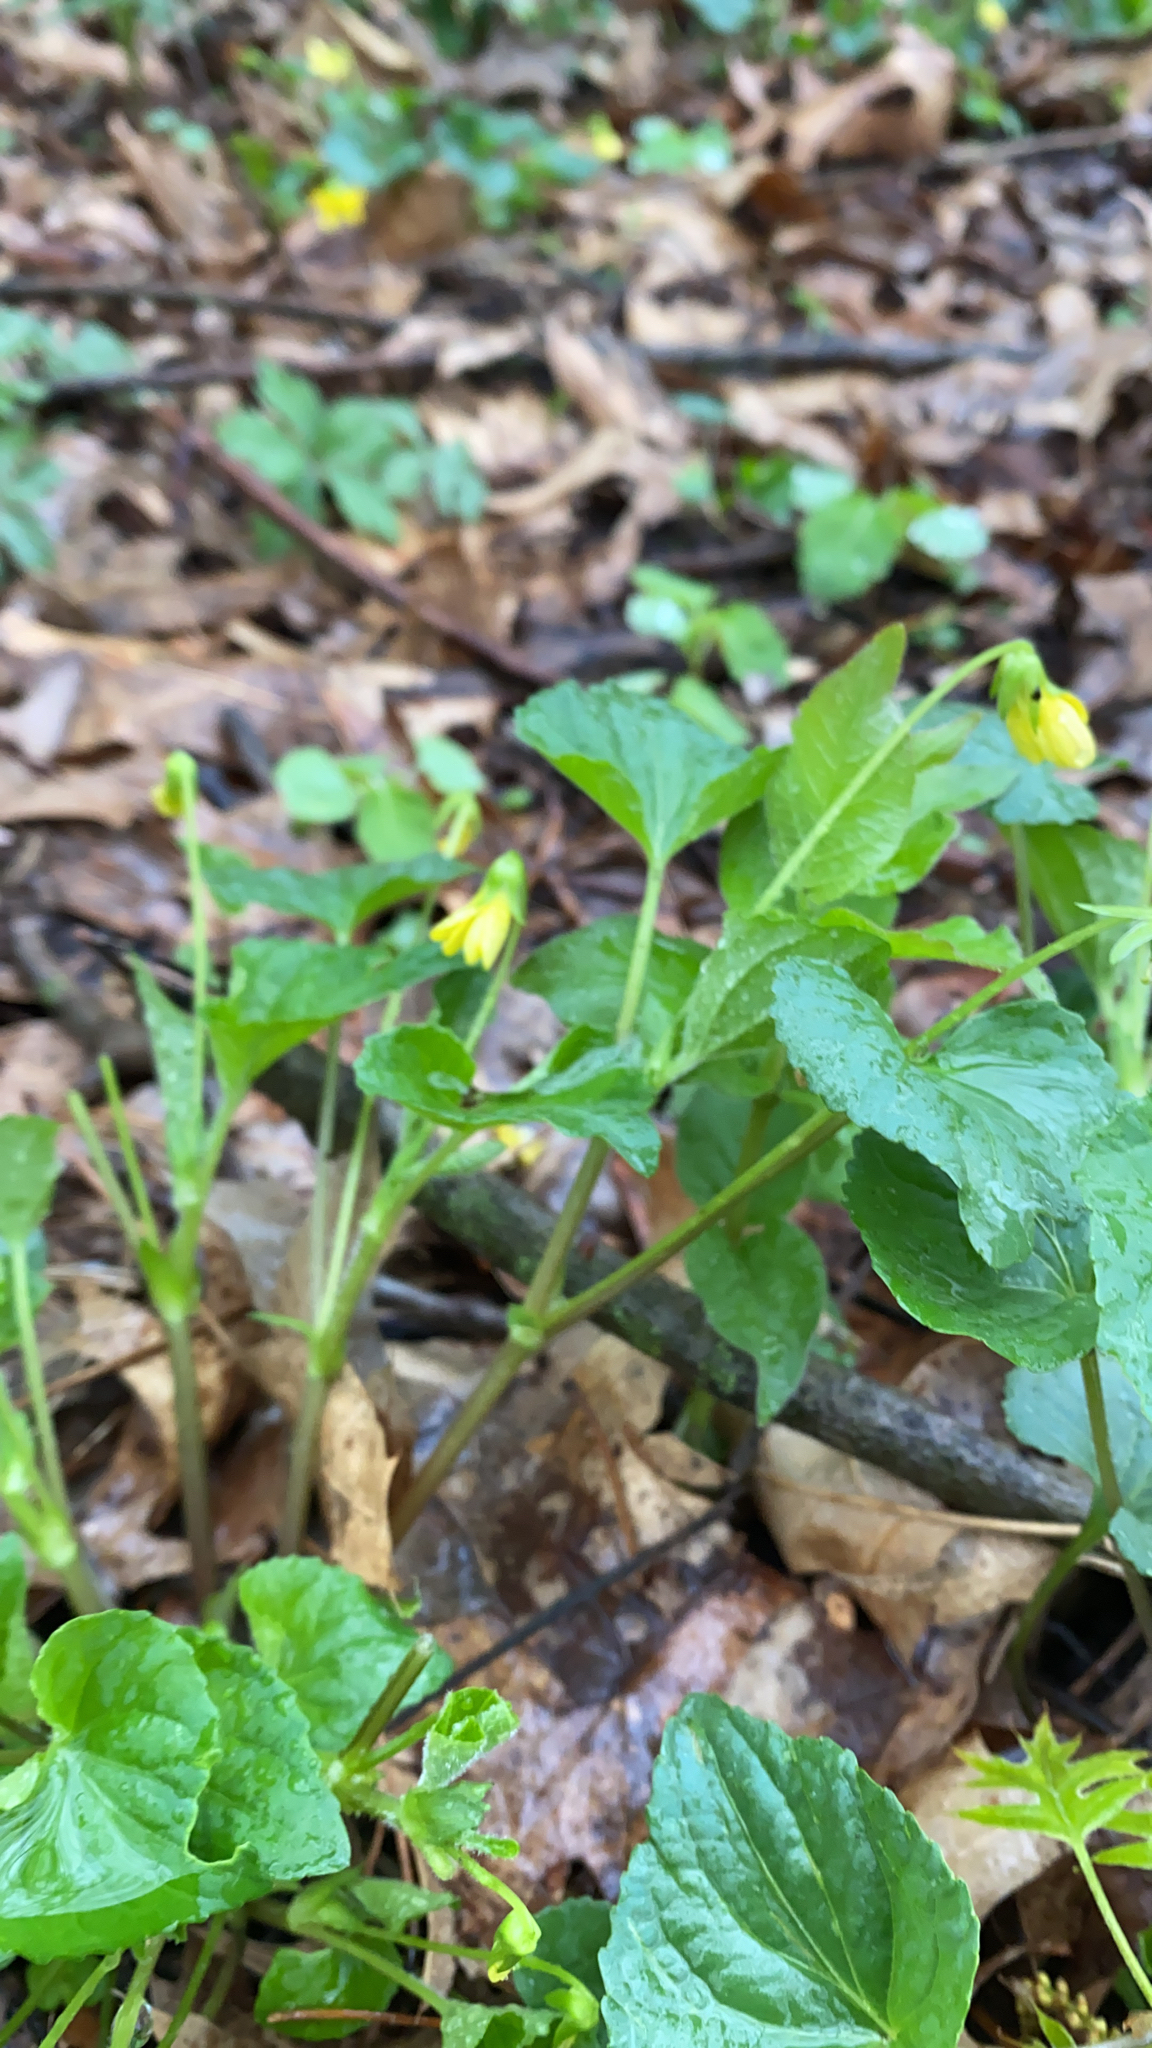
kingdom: Plantae
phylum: Tracheophyta
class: Magnoliopsida
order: Malpighiales
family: Violaceae
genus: Viola
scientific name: Viola eriocarpa
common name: Smooth yellow violet
